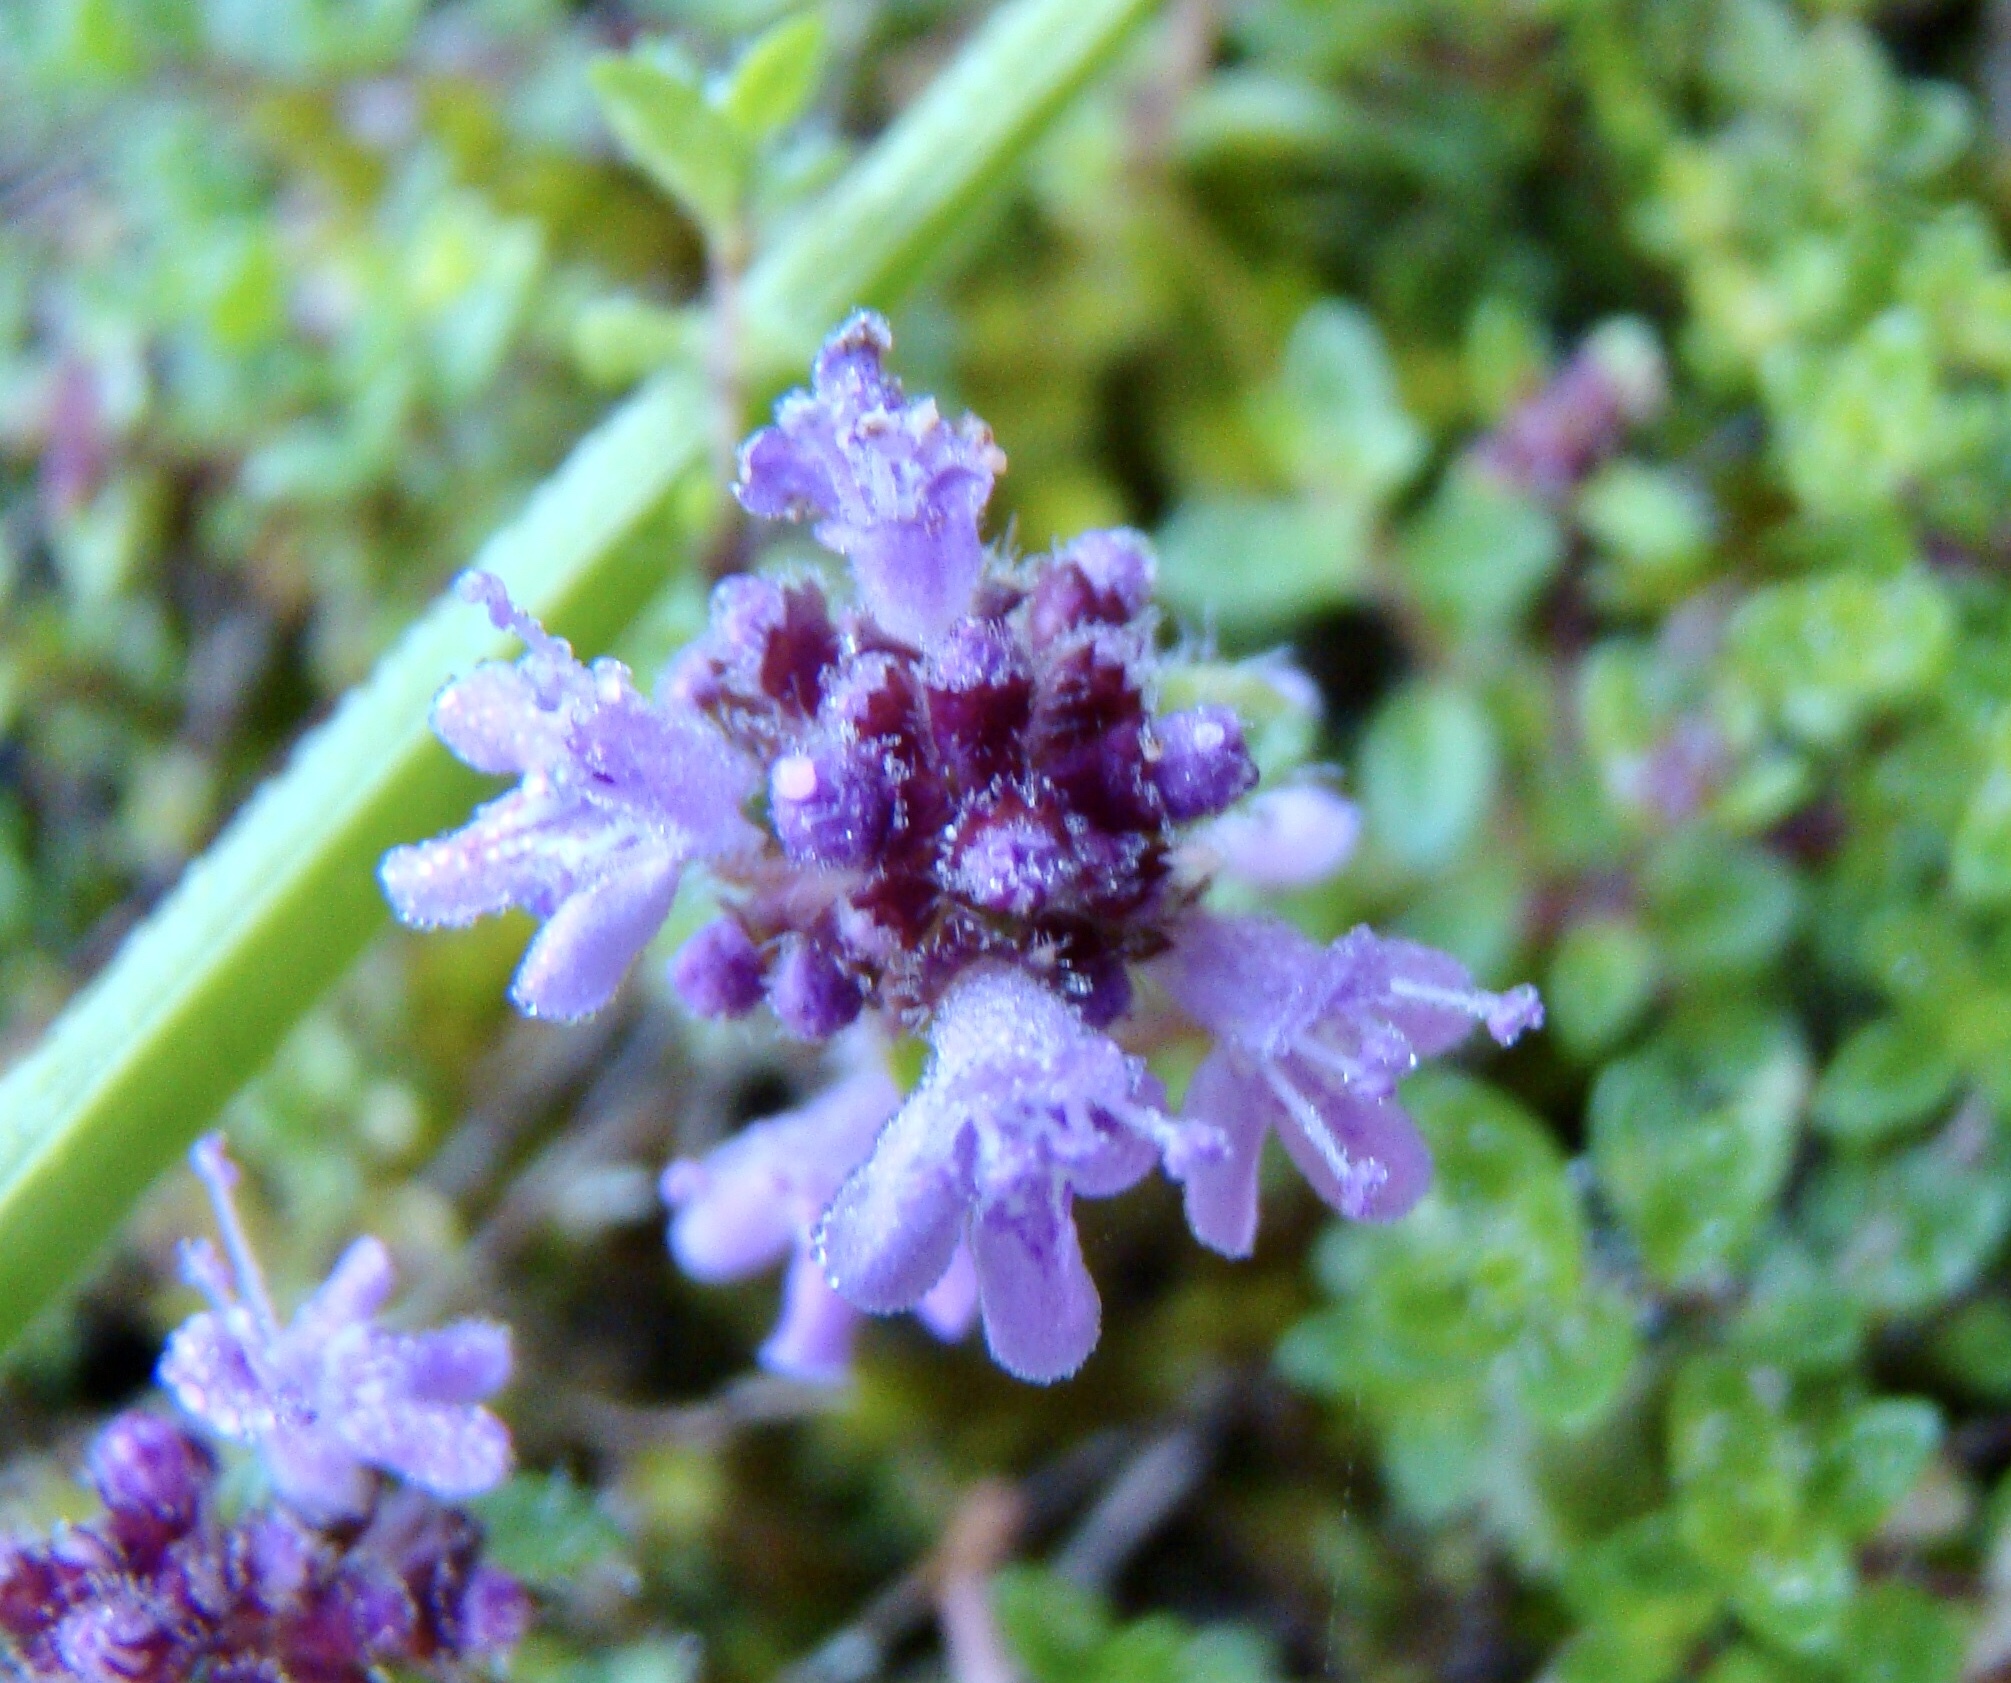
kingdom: Plantae
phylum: Tracheophyta
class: Magnoliopsida
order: Lamiales
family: Lamiaceae
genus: Thymus
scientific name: Thymus praecox
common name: Wild thyme
